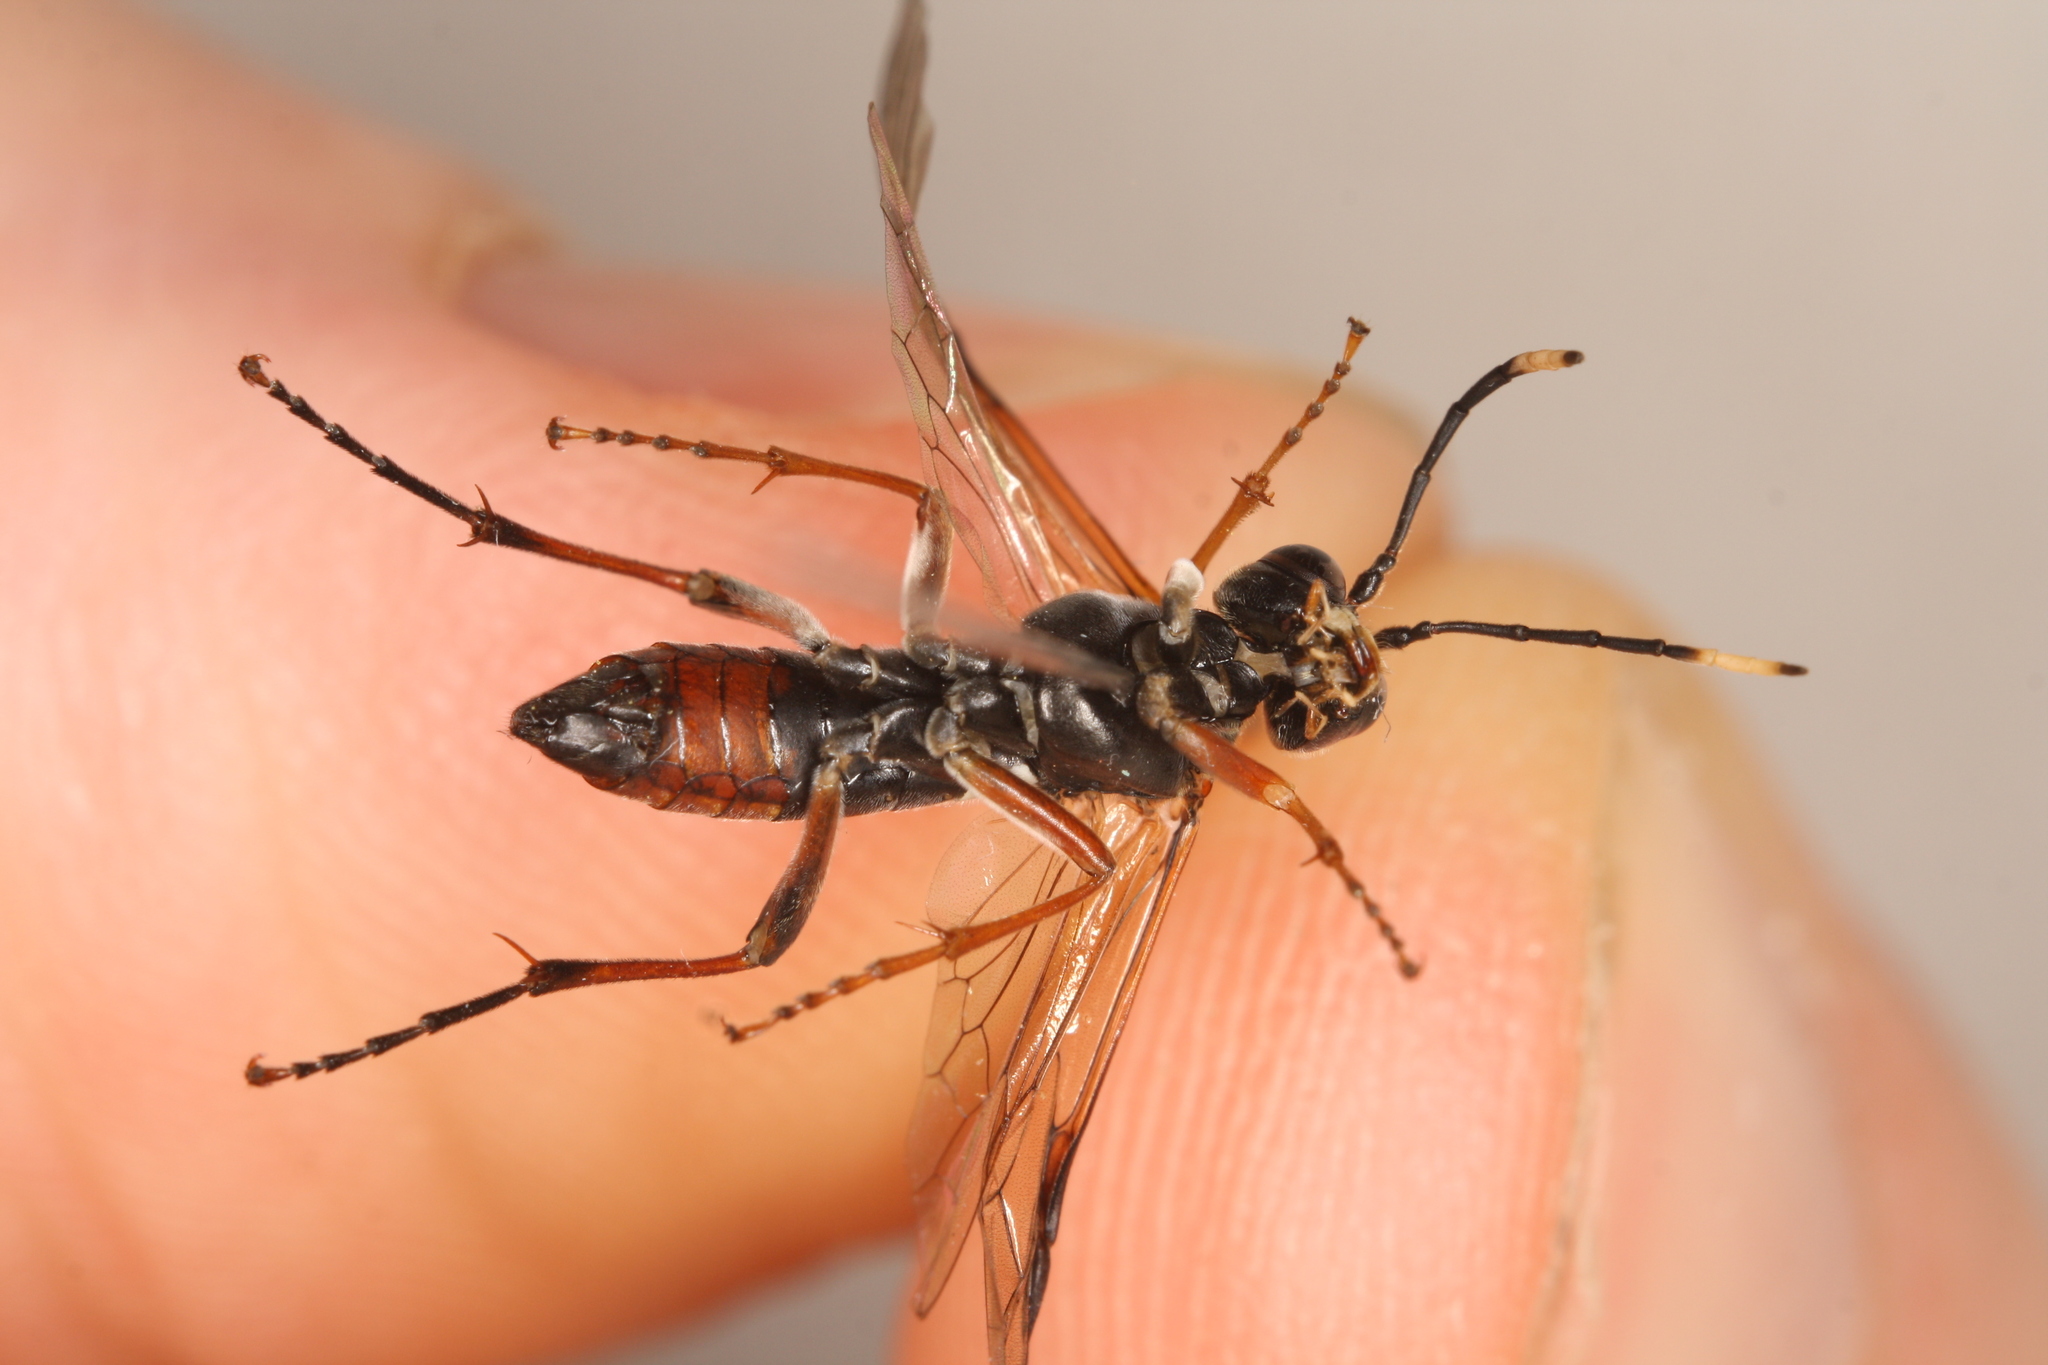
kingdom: Animalia
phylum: Arthropoda
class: Insecta
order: Hymenoptera
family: Tenthredinidae
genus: Tenthredo
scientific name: Tenthredo colon
